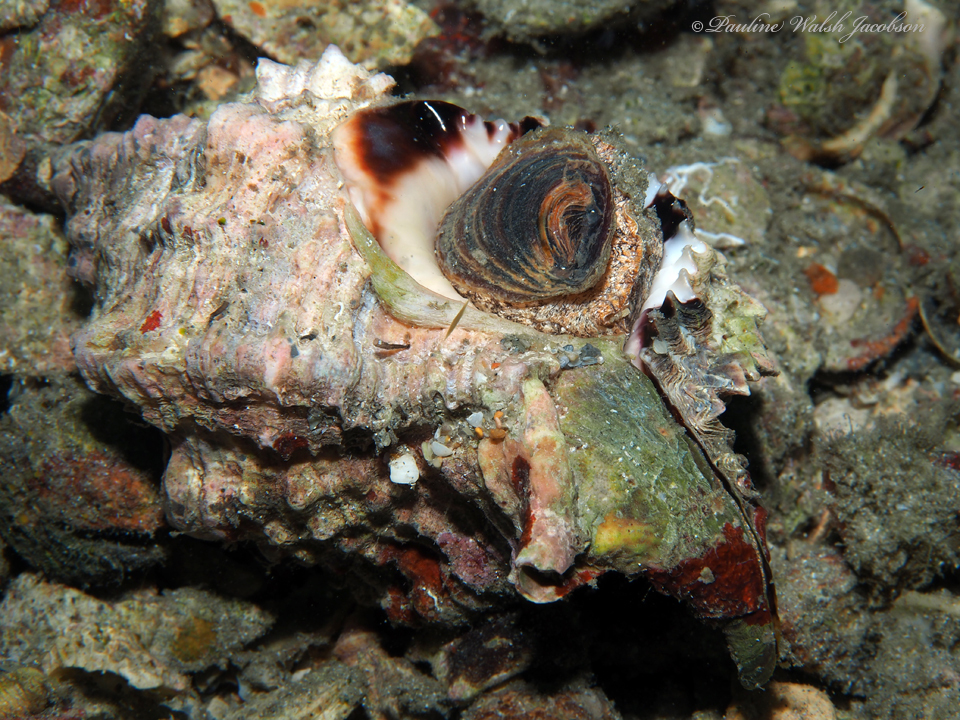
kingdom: Animalia
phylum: Mollusca
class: Gastropoda
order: Neogastropoda
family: Muricidae
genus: Phyllonotus
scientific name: Phyllonotus pomum
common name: Apple murex
